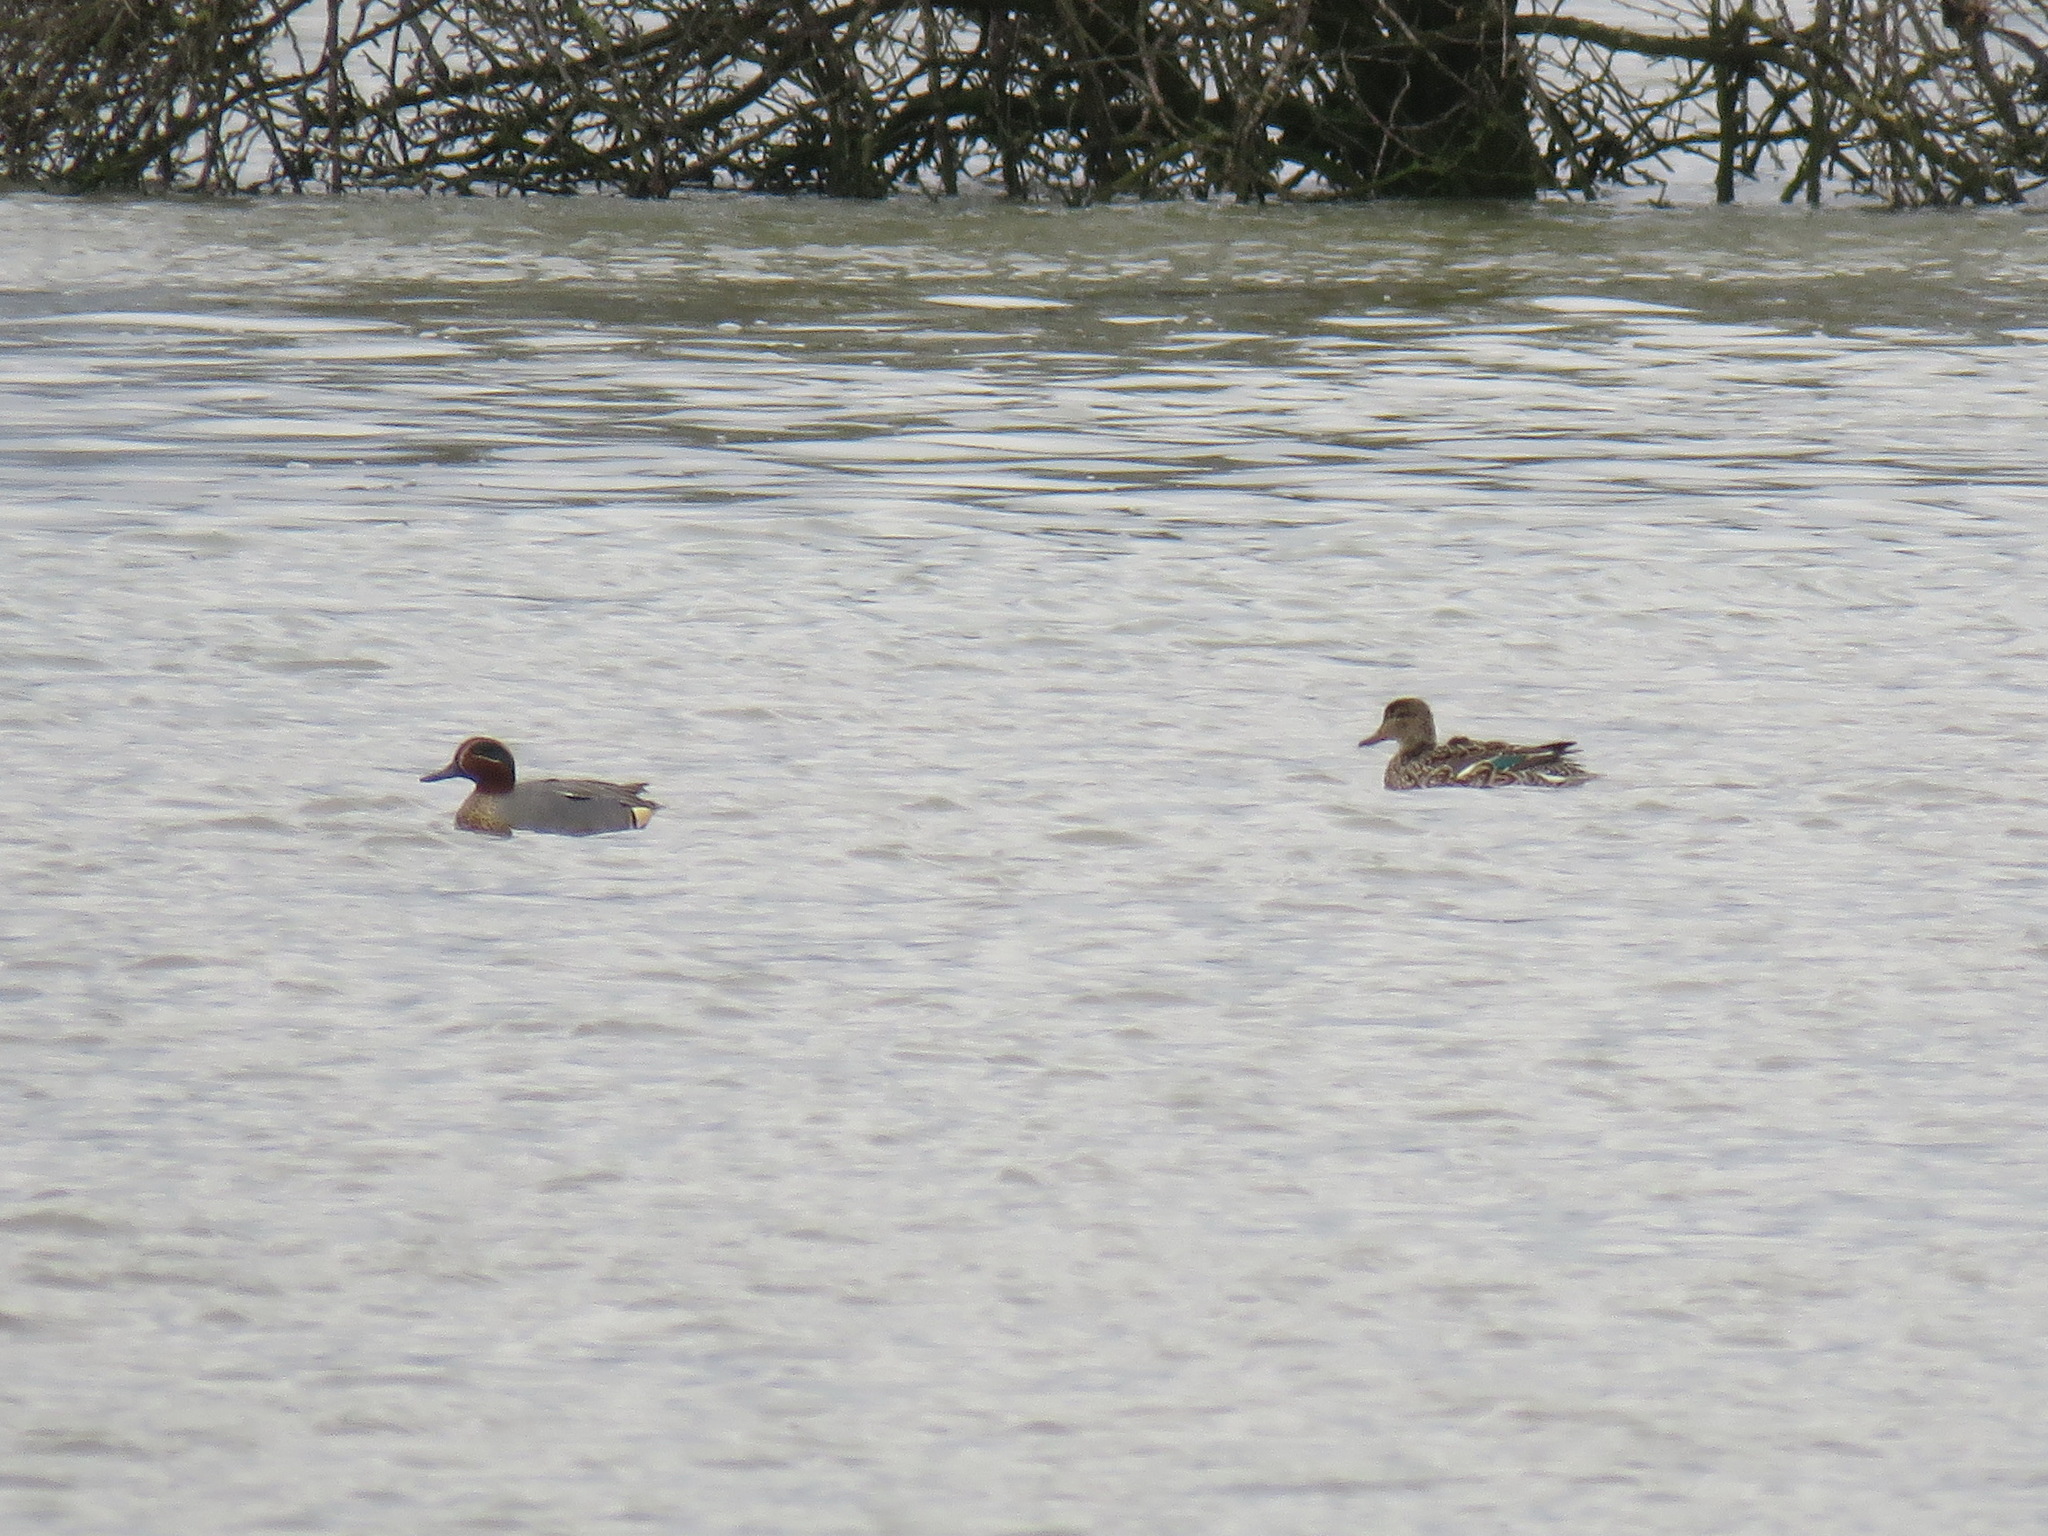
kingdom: Animalia
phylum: Chordata
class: Aves
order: Anseriformes
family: Anatidae
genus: Anas
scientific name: Anas crecca
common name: Eurasian teal
